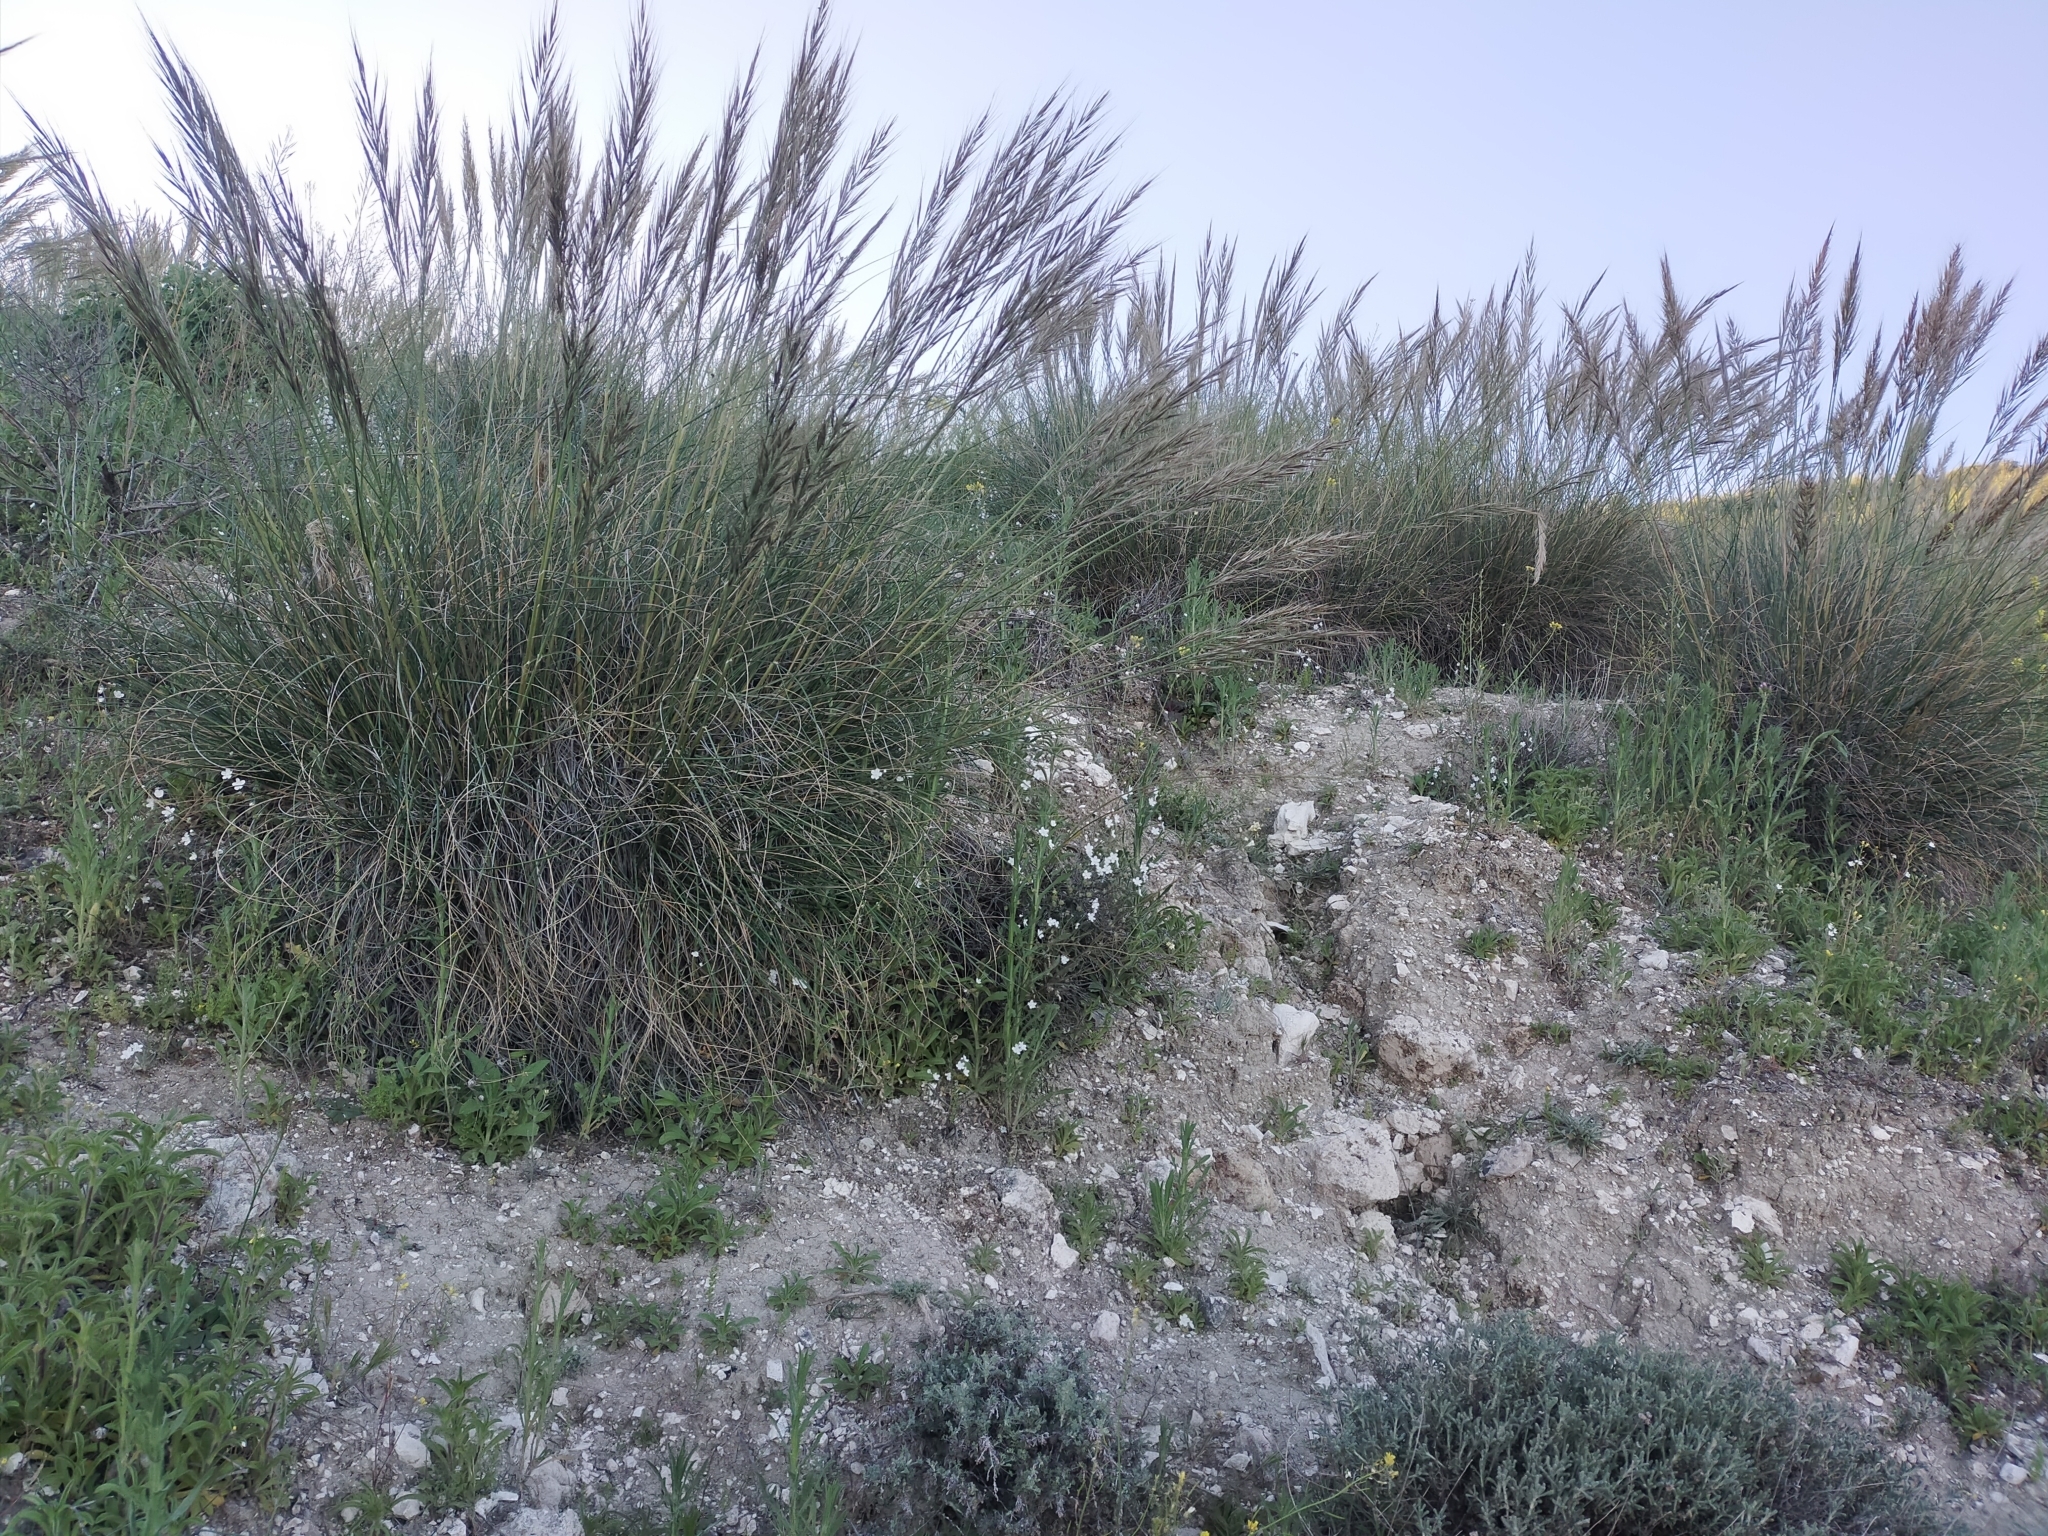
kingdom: Plantae
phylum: Tracheophyta
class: Liliopsida
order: Poales
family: Poaceae
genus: Macrochloa
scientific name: Macrochloa tenacissima
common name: Alfa grass
